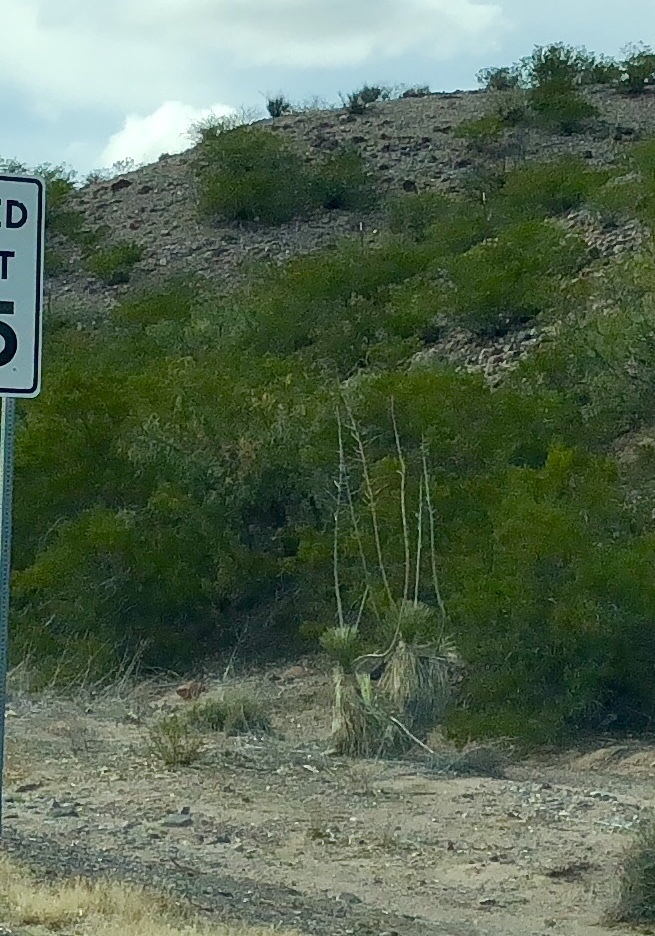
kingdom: Plantae
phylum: Tracheophyta
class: Liliopsida
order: Asparagales
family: Asparagaceae
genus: Yucca
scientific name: Yucca elata
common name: Palmella
